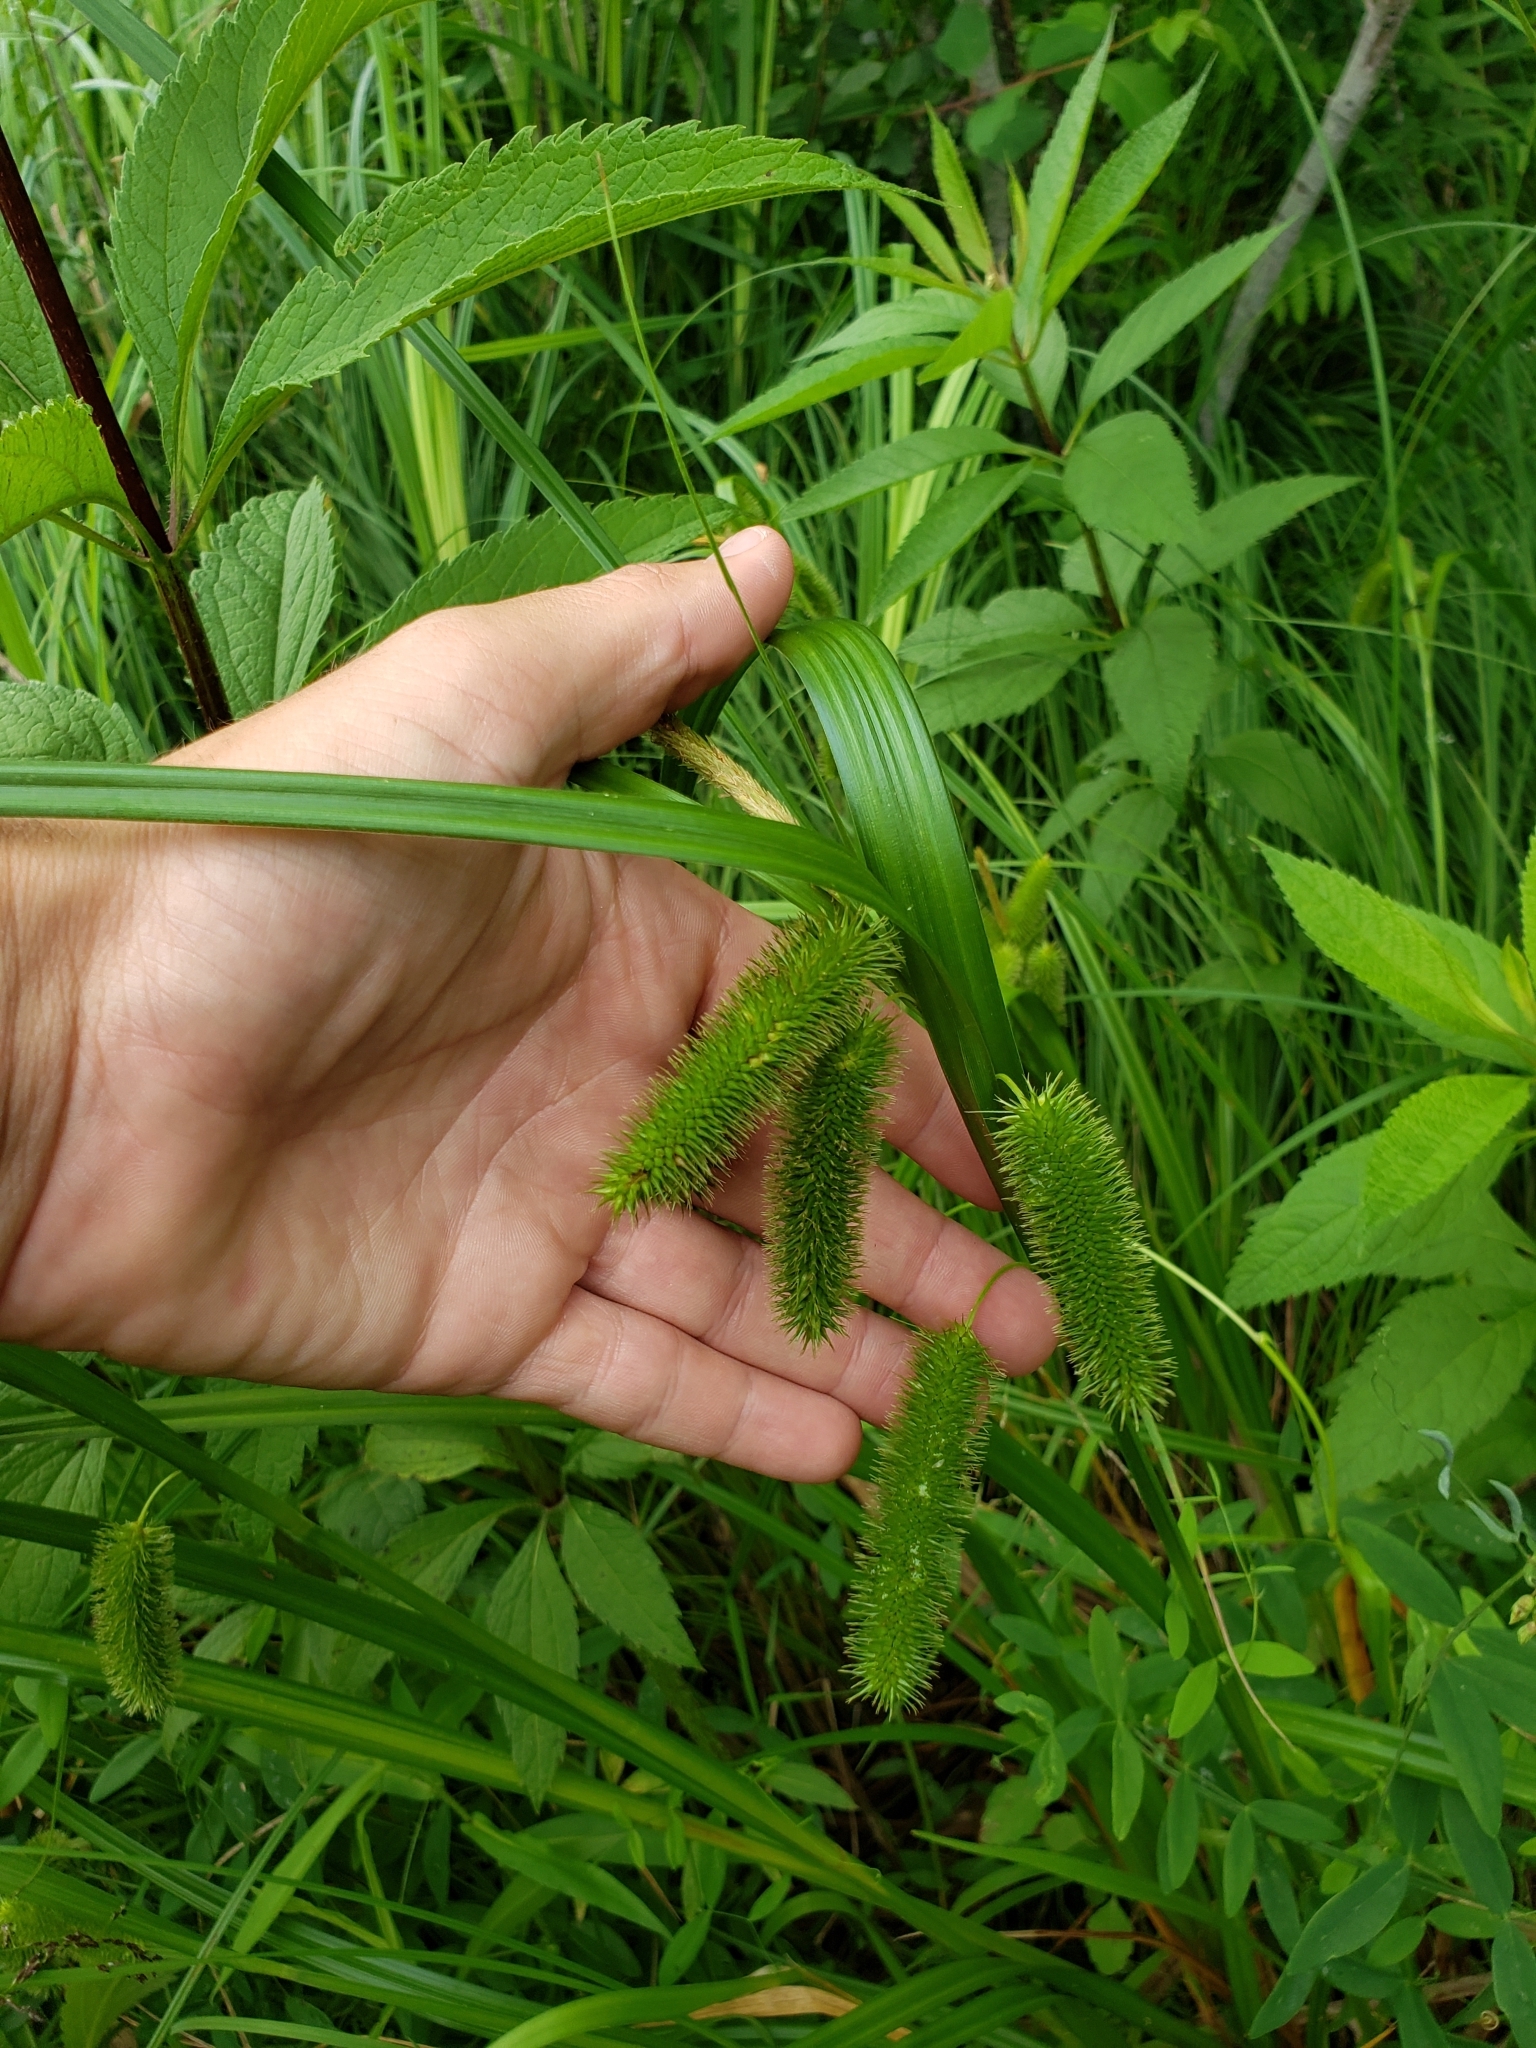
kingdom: Plantae
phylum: Tracheophyta
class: Liliopsida
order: Poales
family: Cyperaceae
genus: Carex
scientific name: Carex comosa
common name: Bristly sedge
